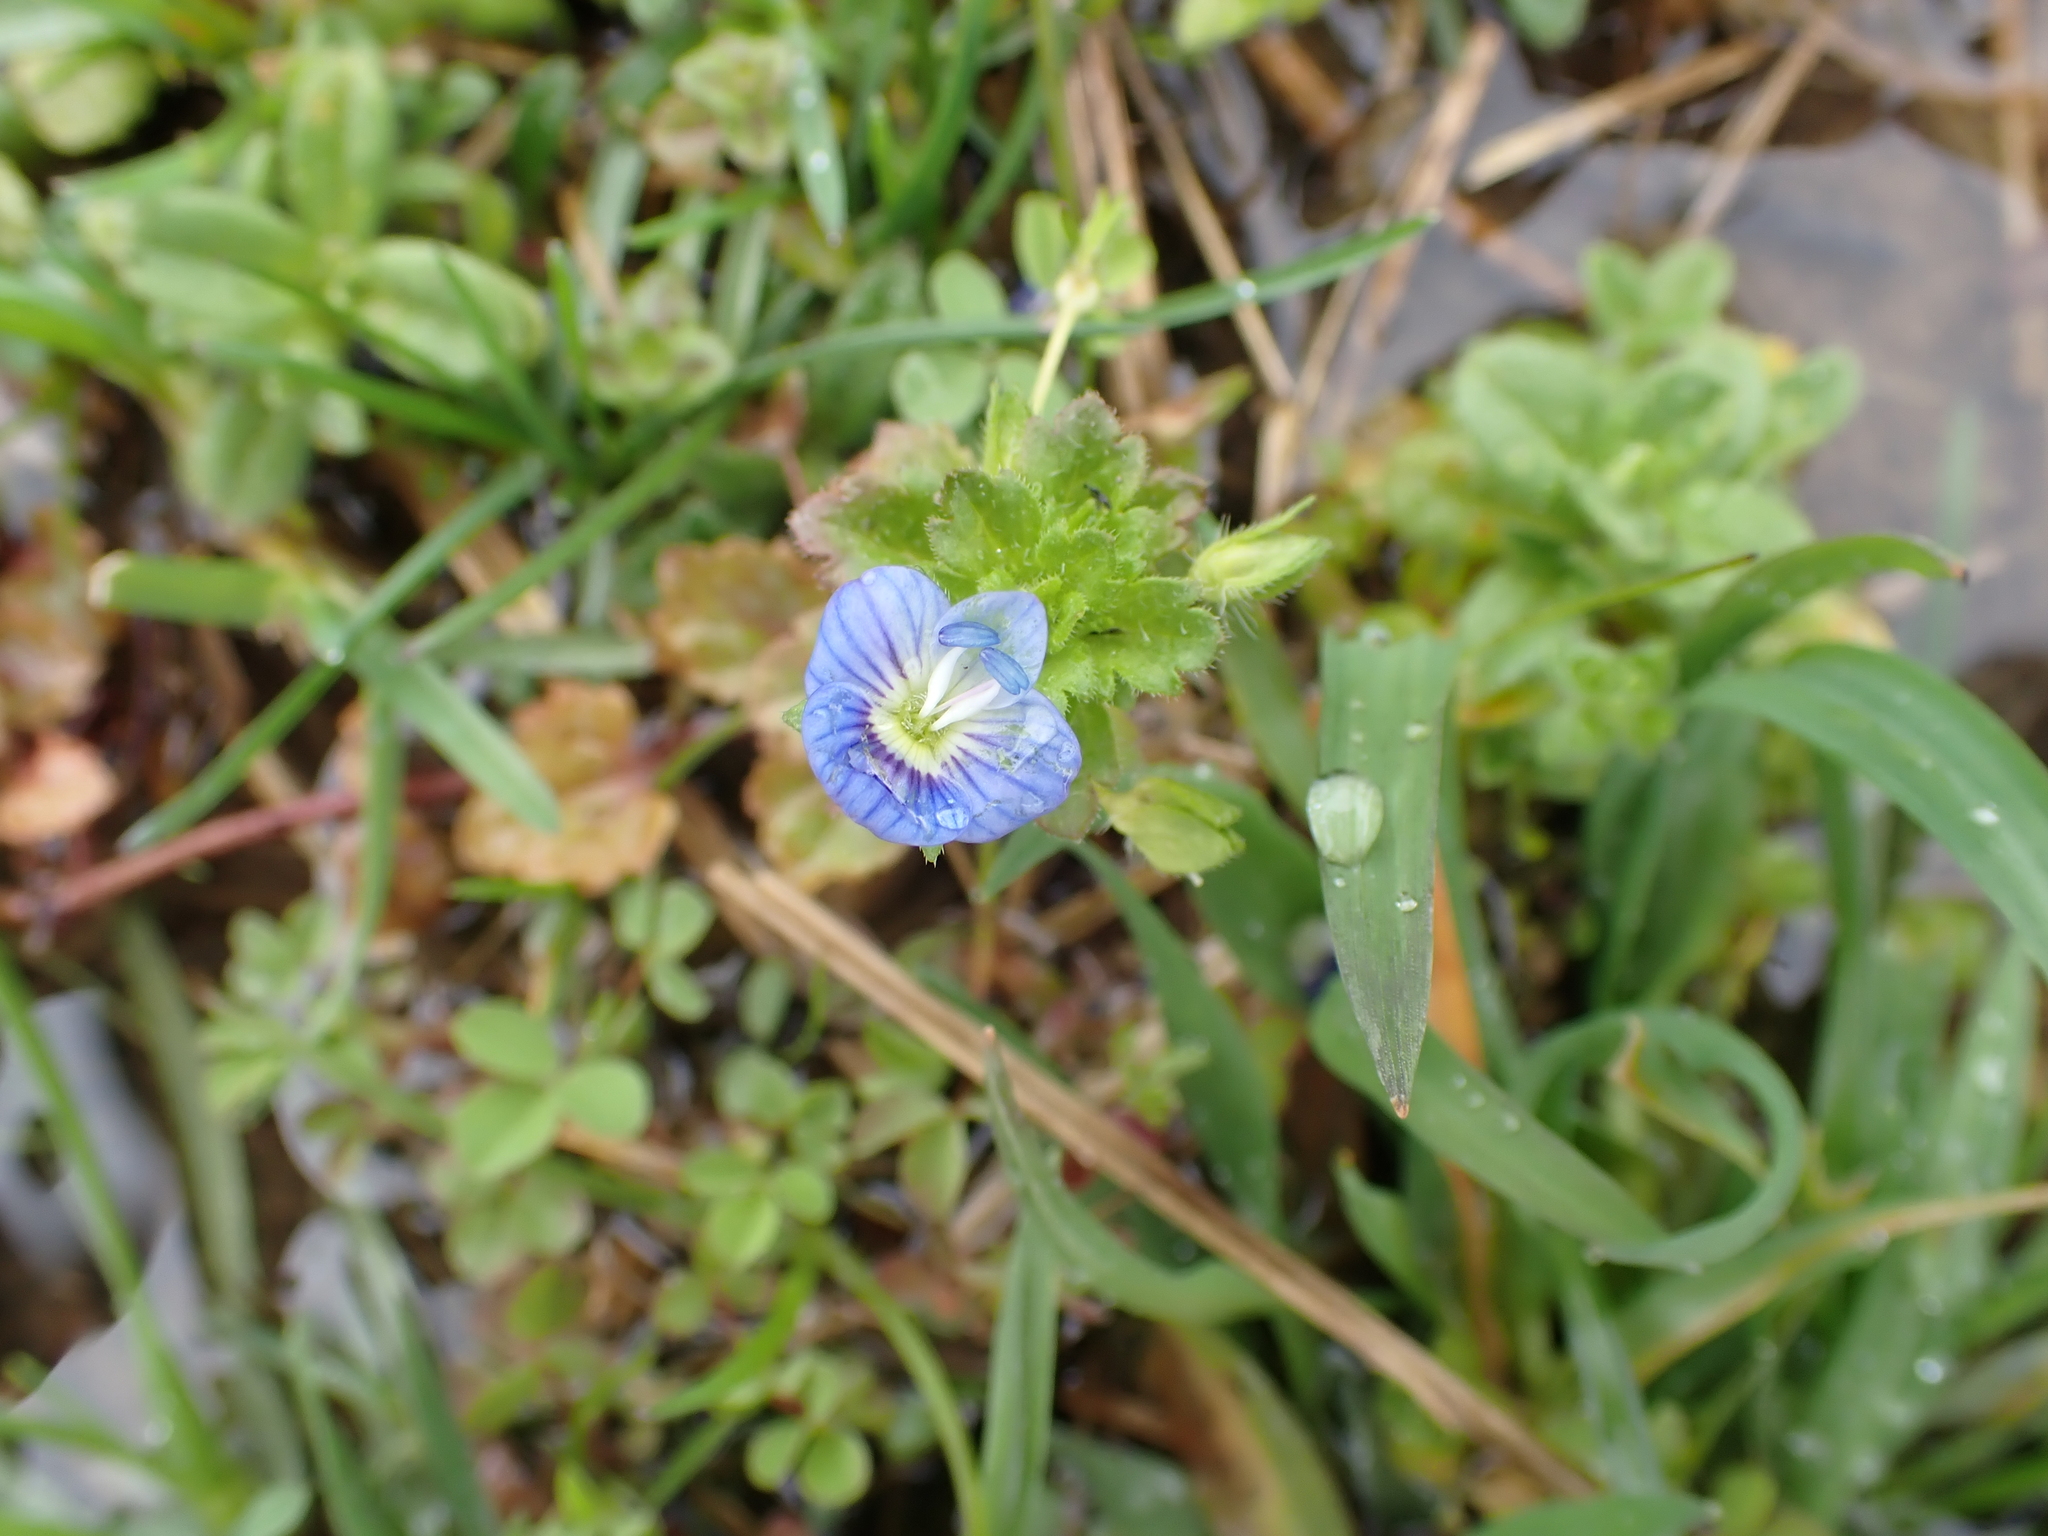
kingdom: Plantae
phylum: Tracheophyta
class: Magnoliopsida
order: Lamiales
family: Plantaginaceae
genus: Veronica
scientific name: Veronica persica
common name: Common field-speedwell
